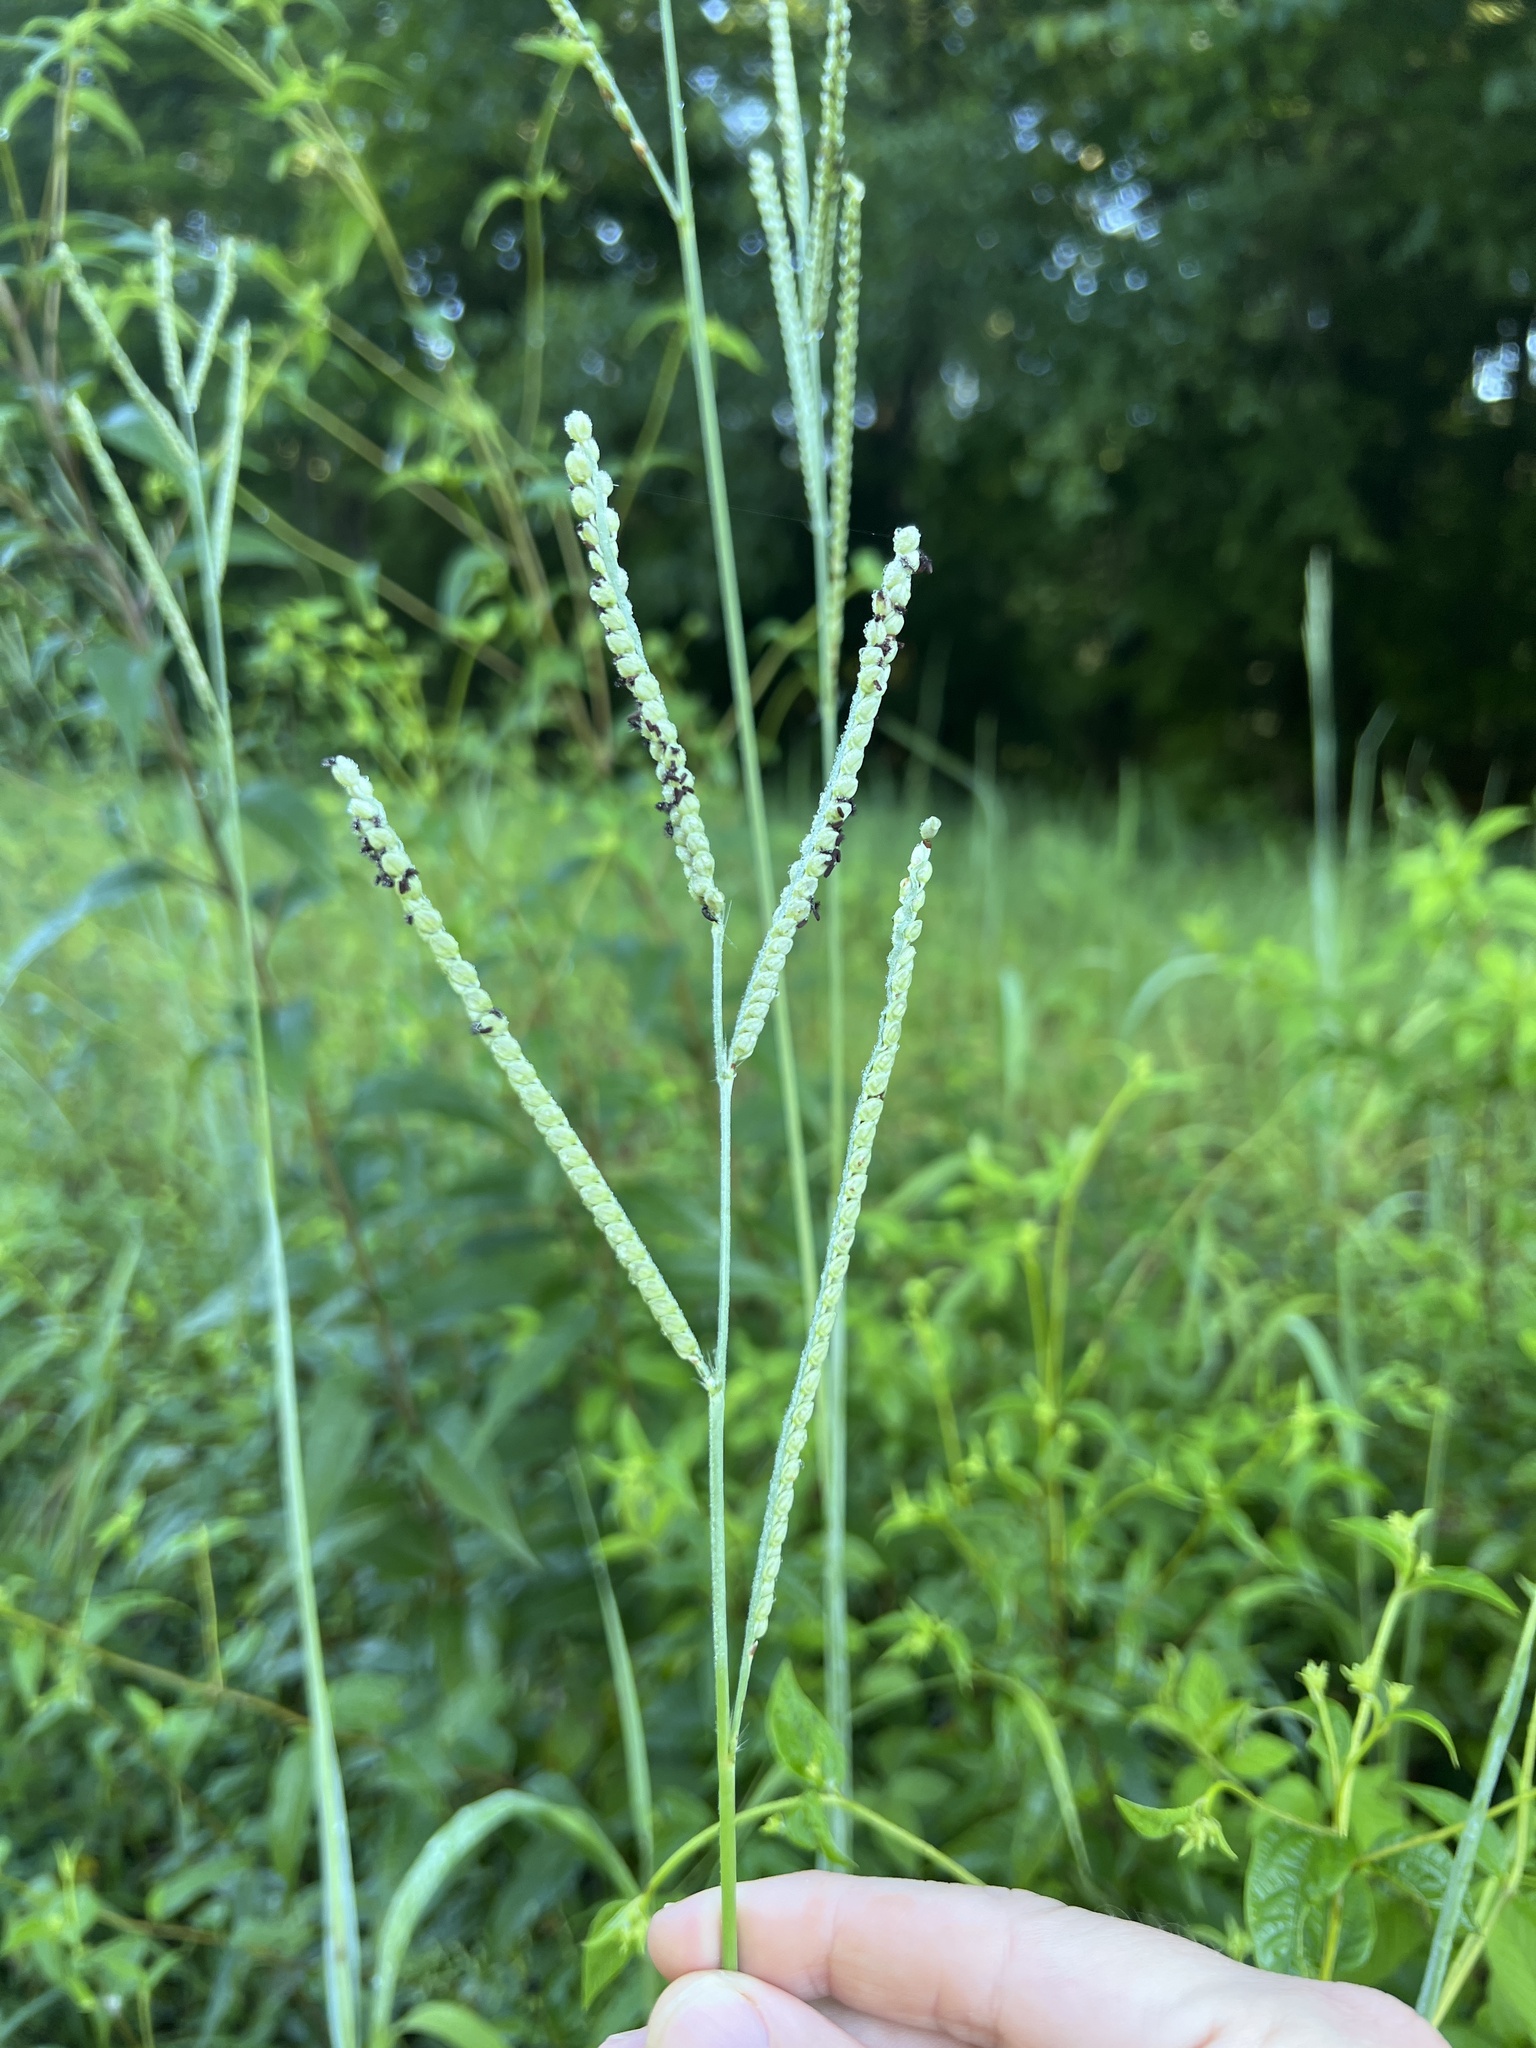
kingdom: Plantae
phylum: Tracheophyta
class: Liliopsida
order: Poales
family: Poaceae
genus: Paspalum
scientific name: Paspalum floridanum
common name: Florida paspalum
